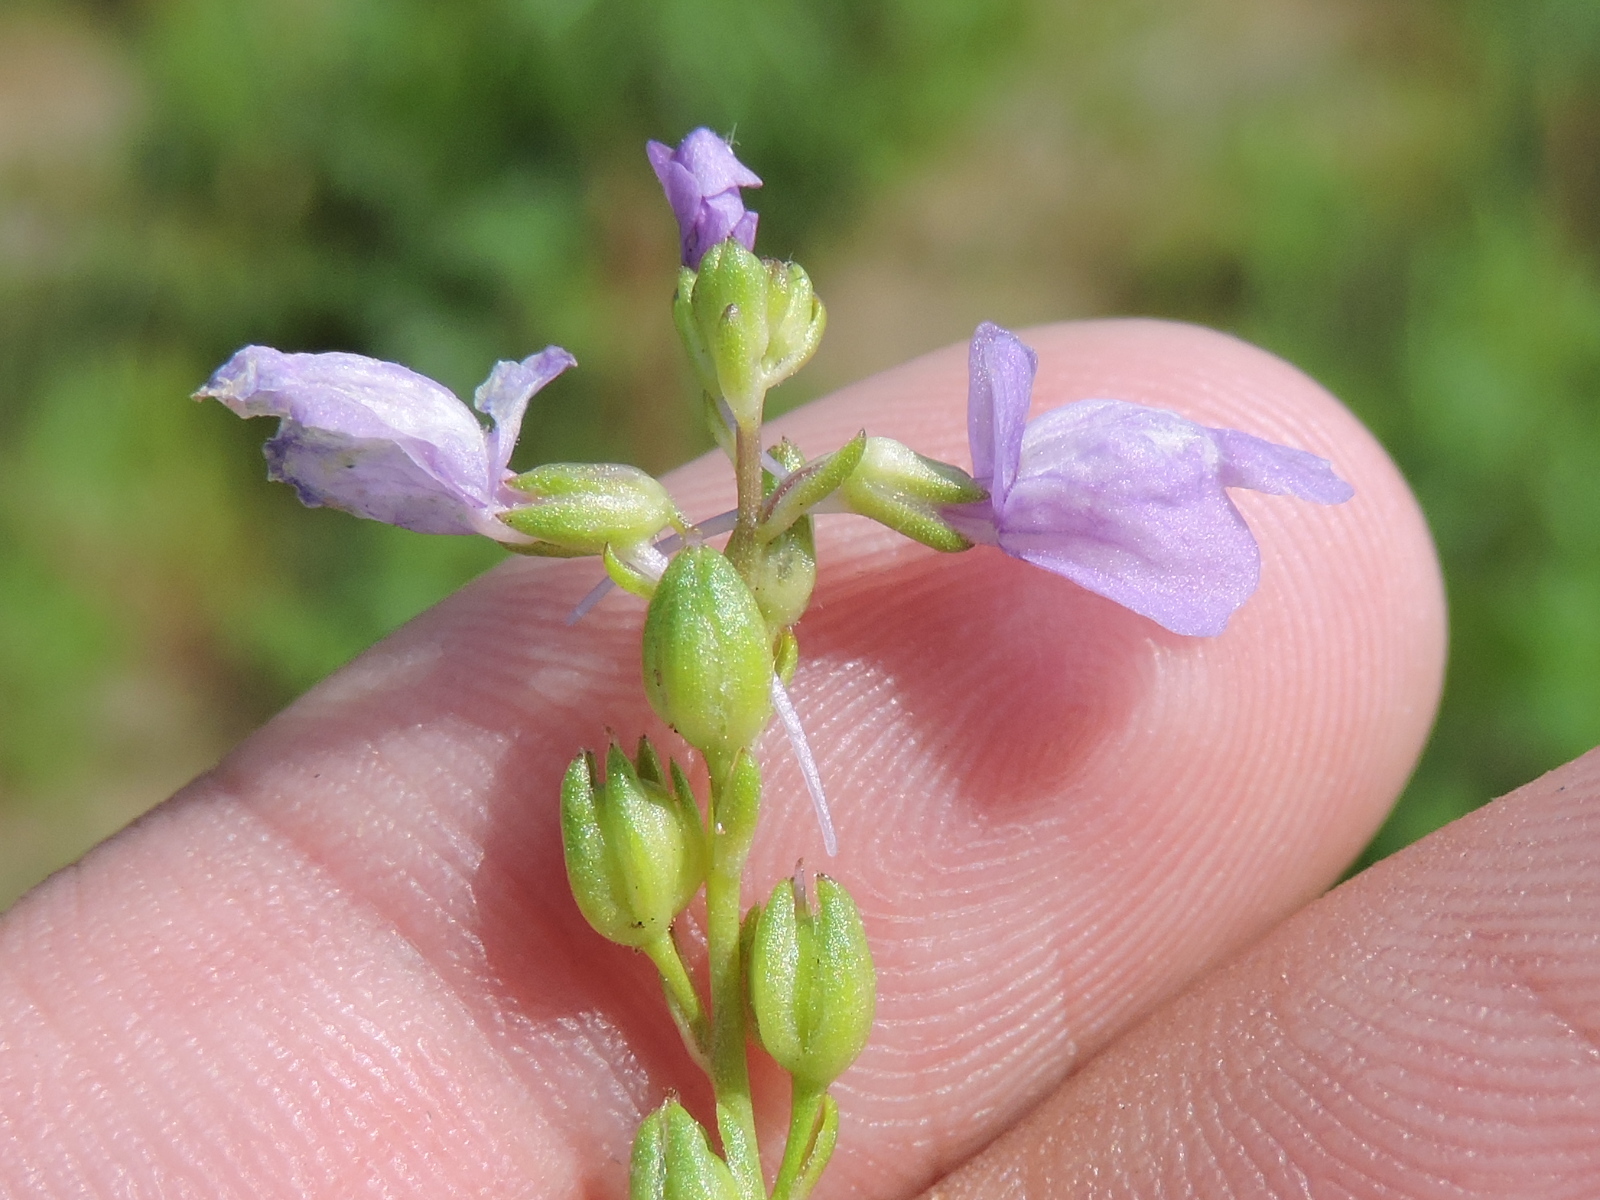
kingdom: Plantae
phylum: Tracheophyta
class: Magnoliopsida
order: Lamiales
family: Plantaginaceae
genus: Nuttallanthus
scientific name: Nuttallanthus texanus
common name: Texas toadflax
